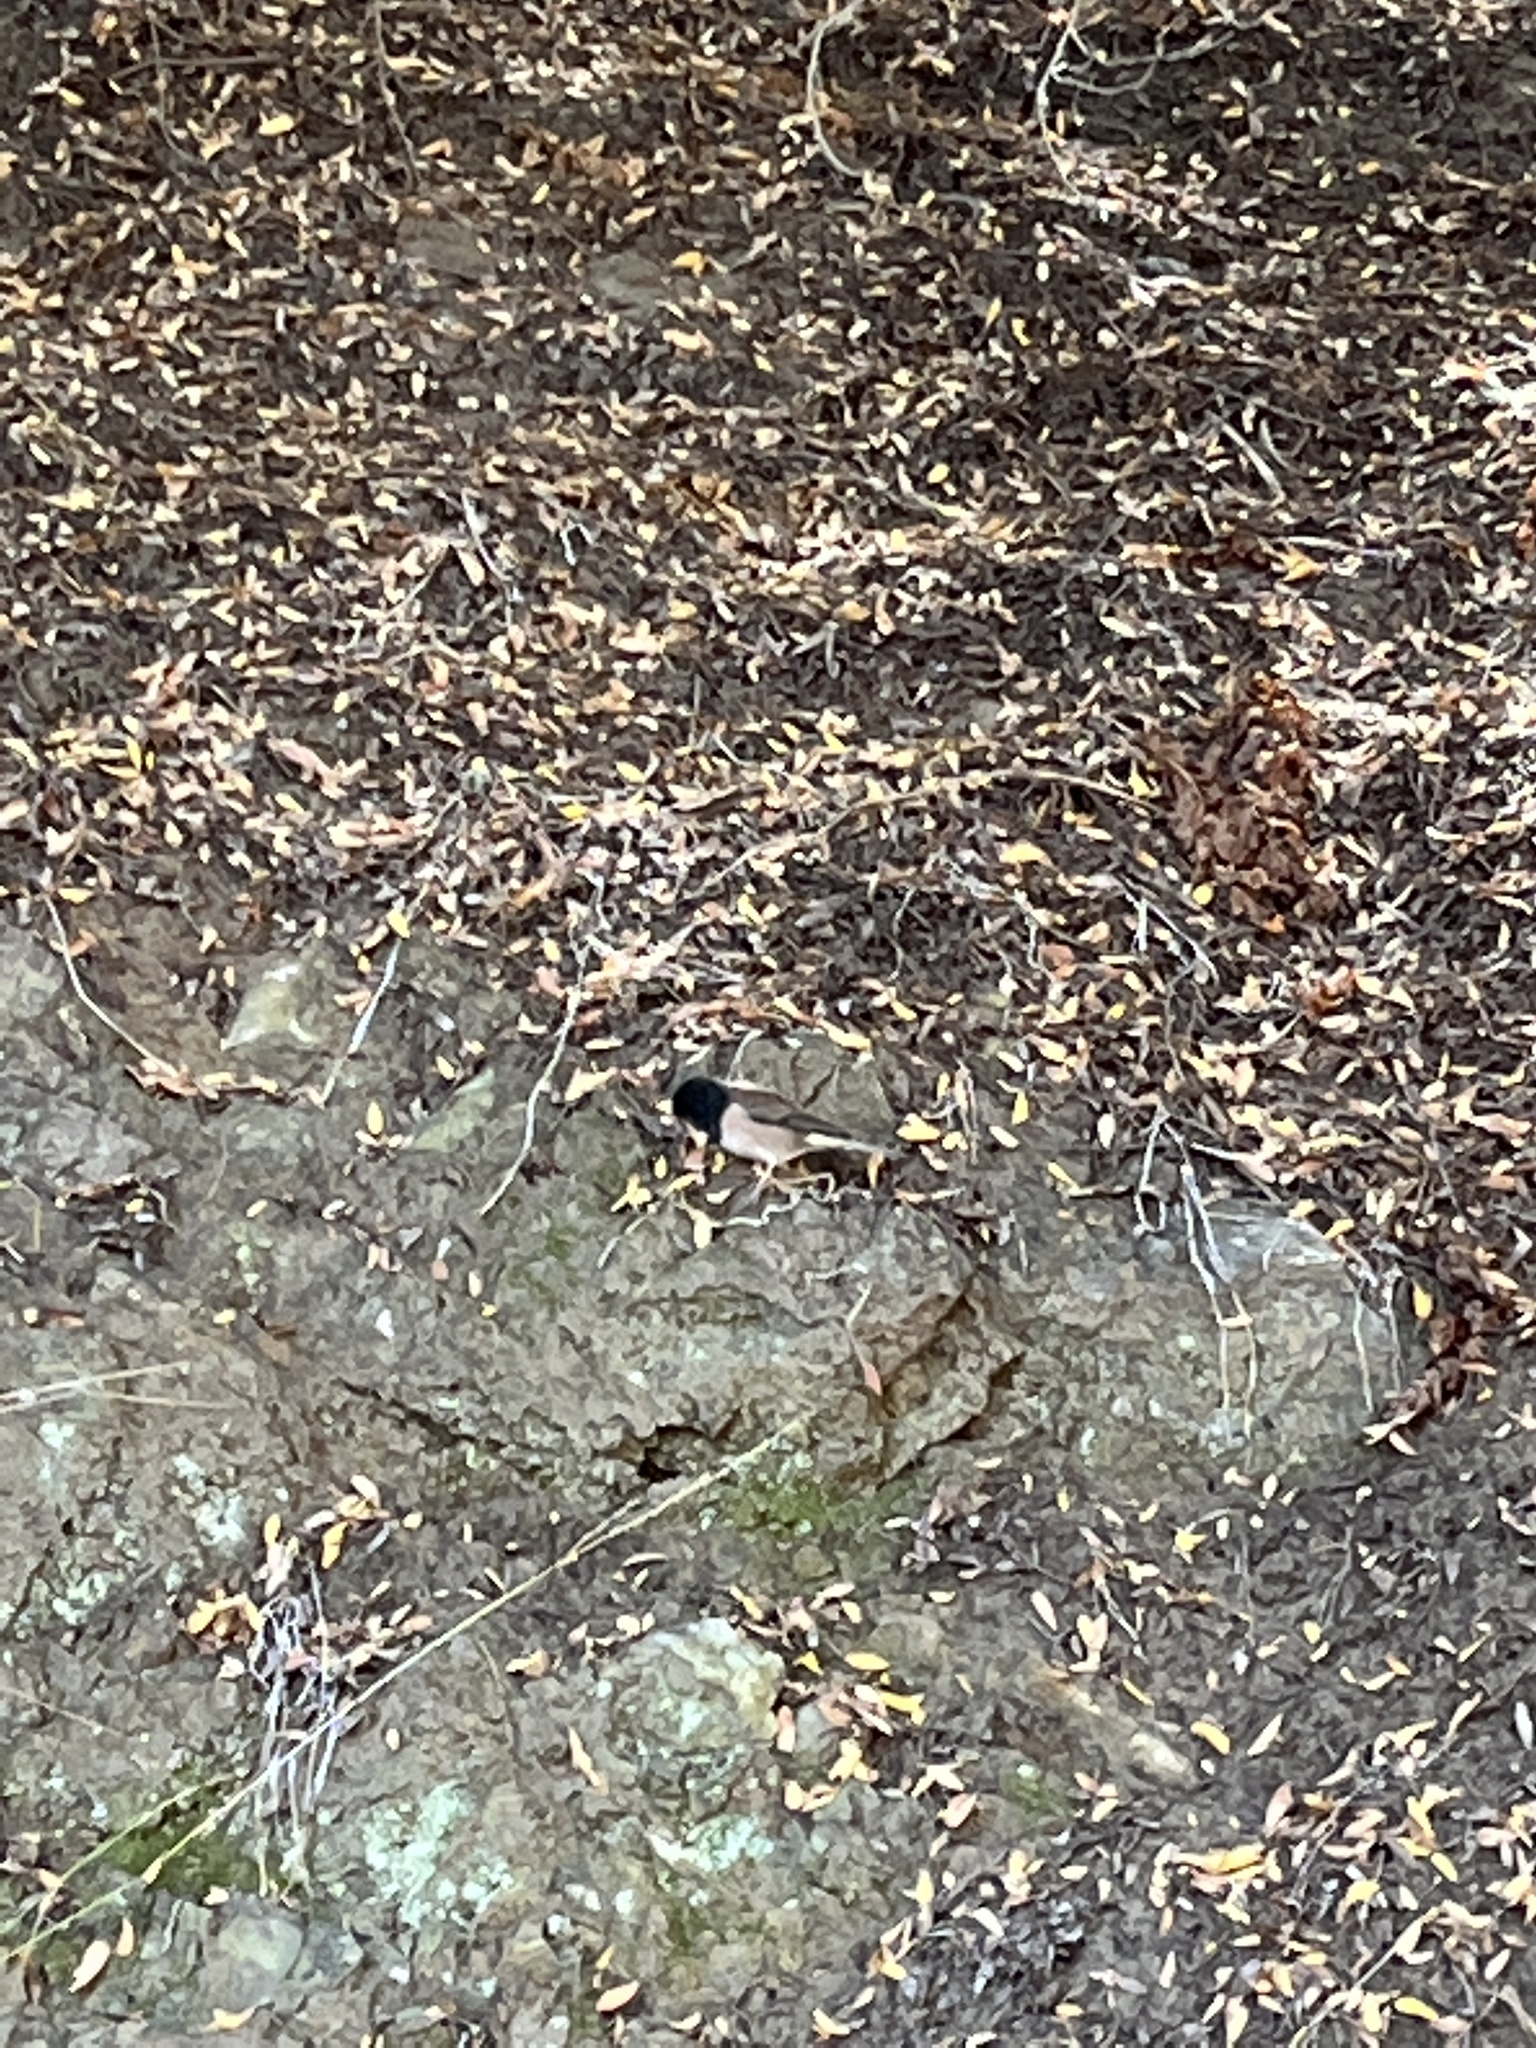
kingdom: Animalia
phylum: Chordata
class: Aves
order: Passeriformes
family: Passerellidae
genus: Junco
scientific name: Junco hyemalis
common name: Dark-eyed junco
